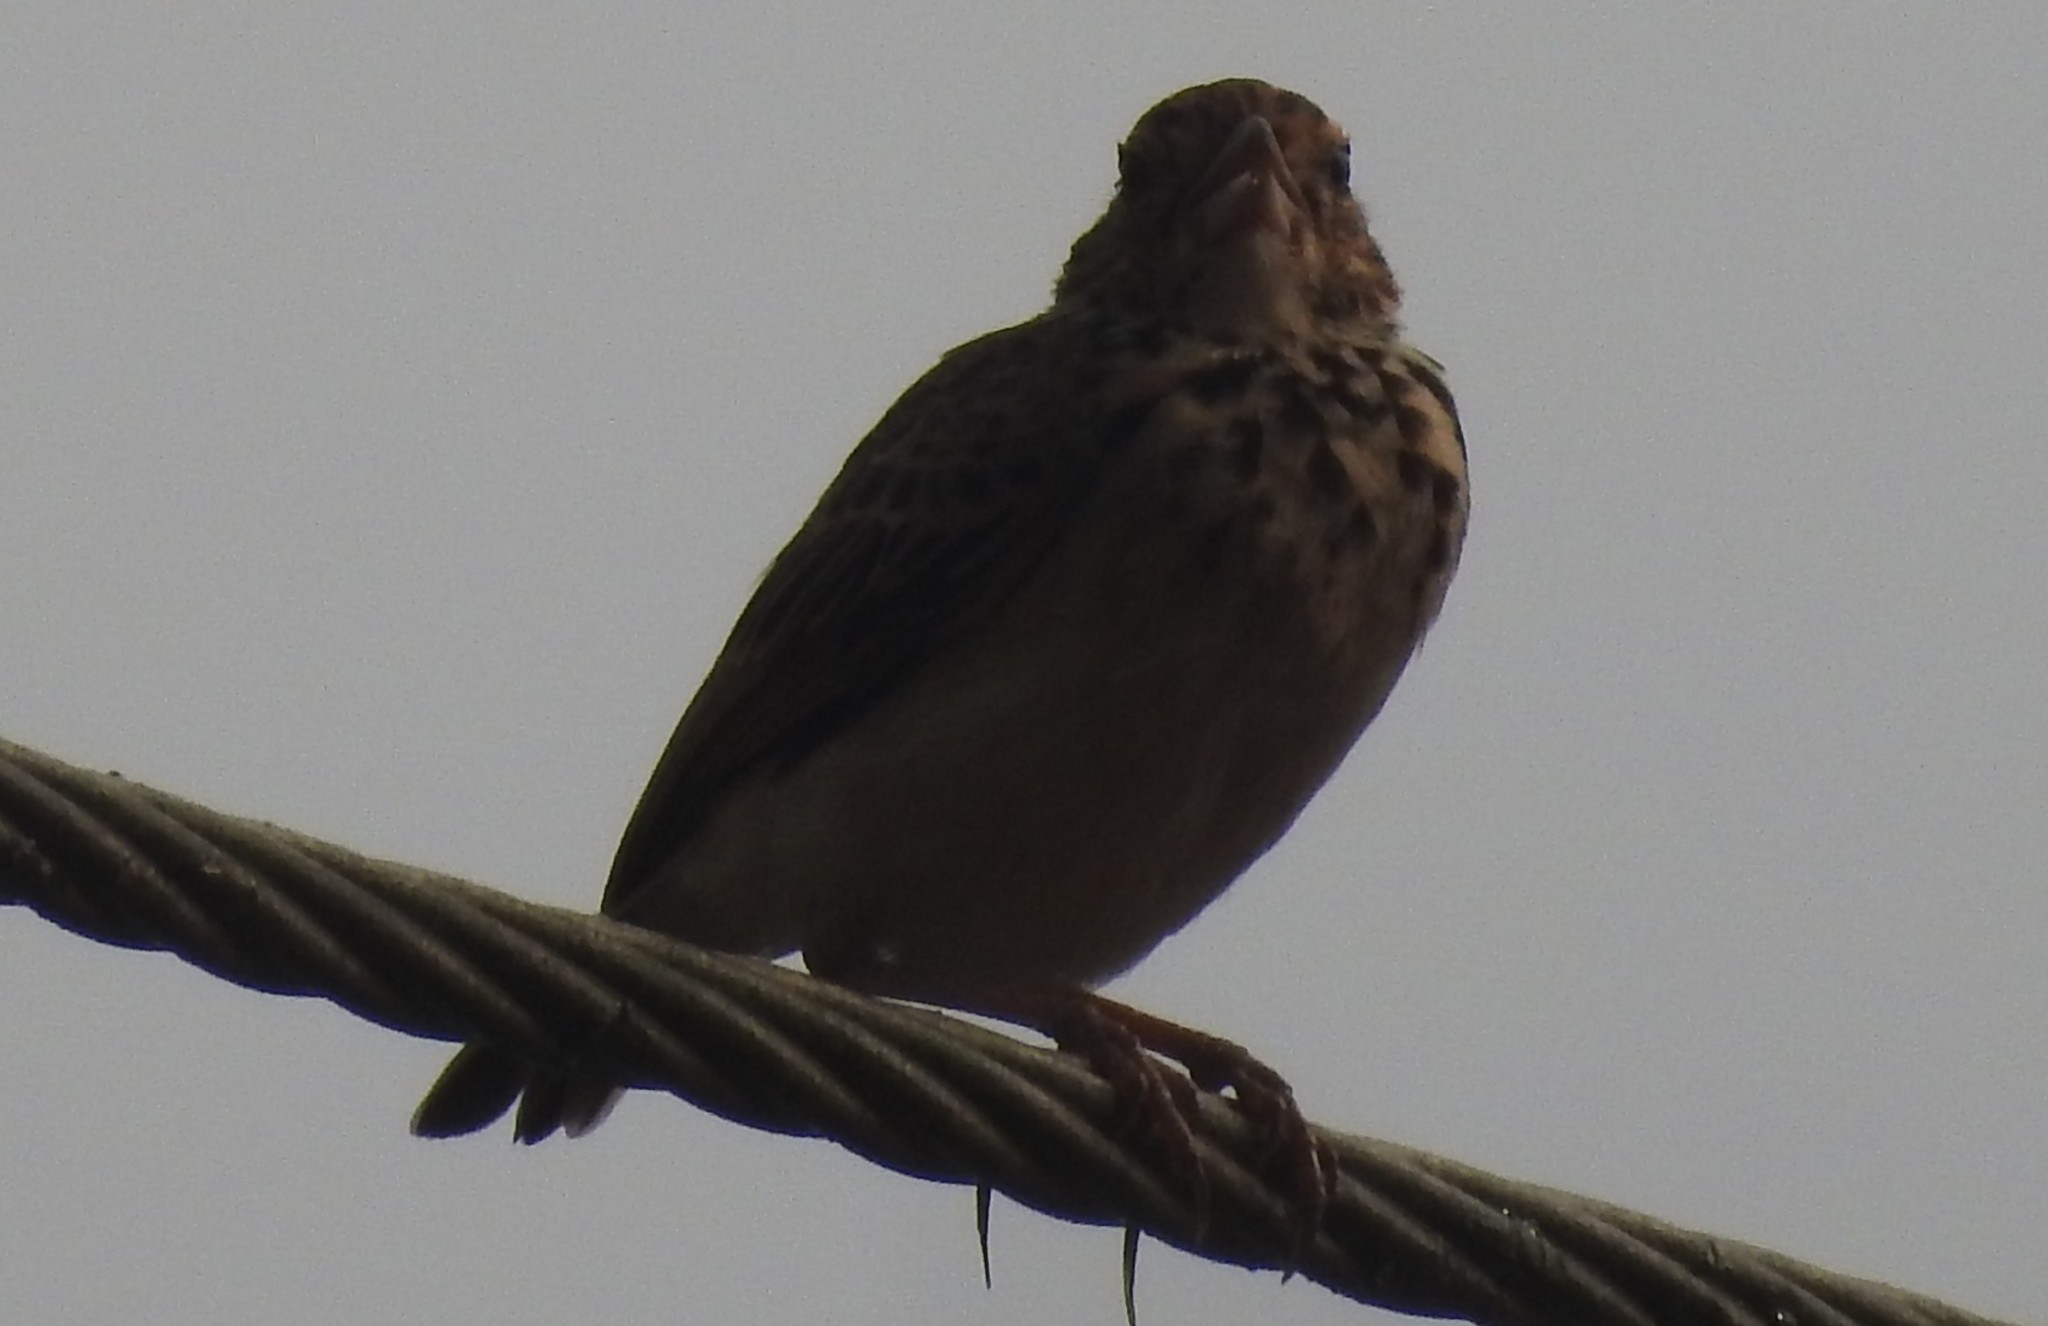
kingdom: Animalia
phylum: Chordata
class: Aves
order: Passeriformes
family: Alaudidae
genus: Mirafra
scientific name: Mirafra affinis
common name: Jerdon's bushlark
